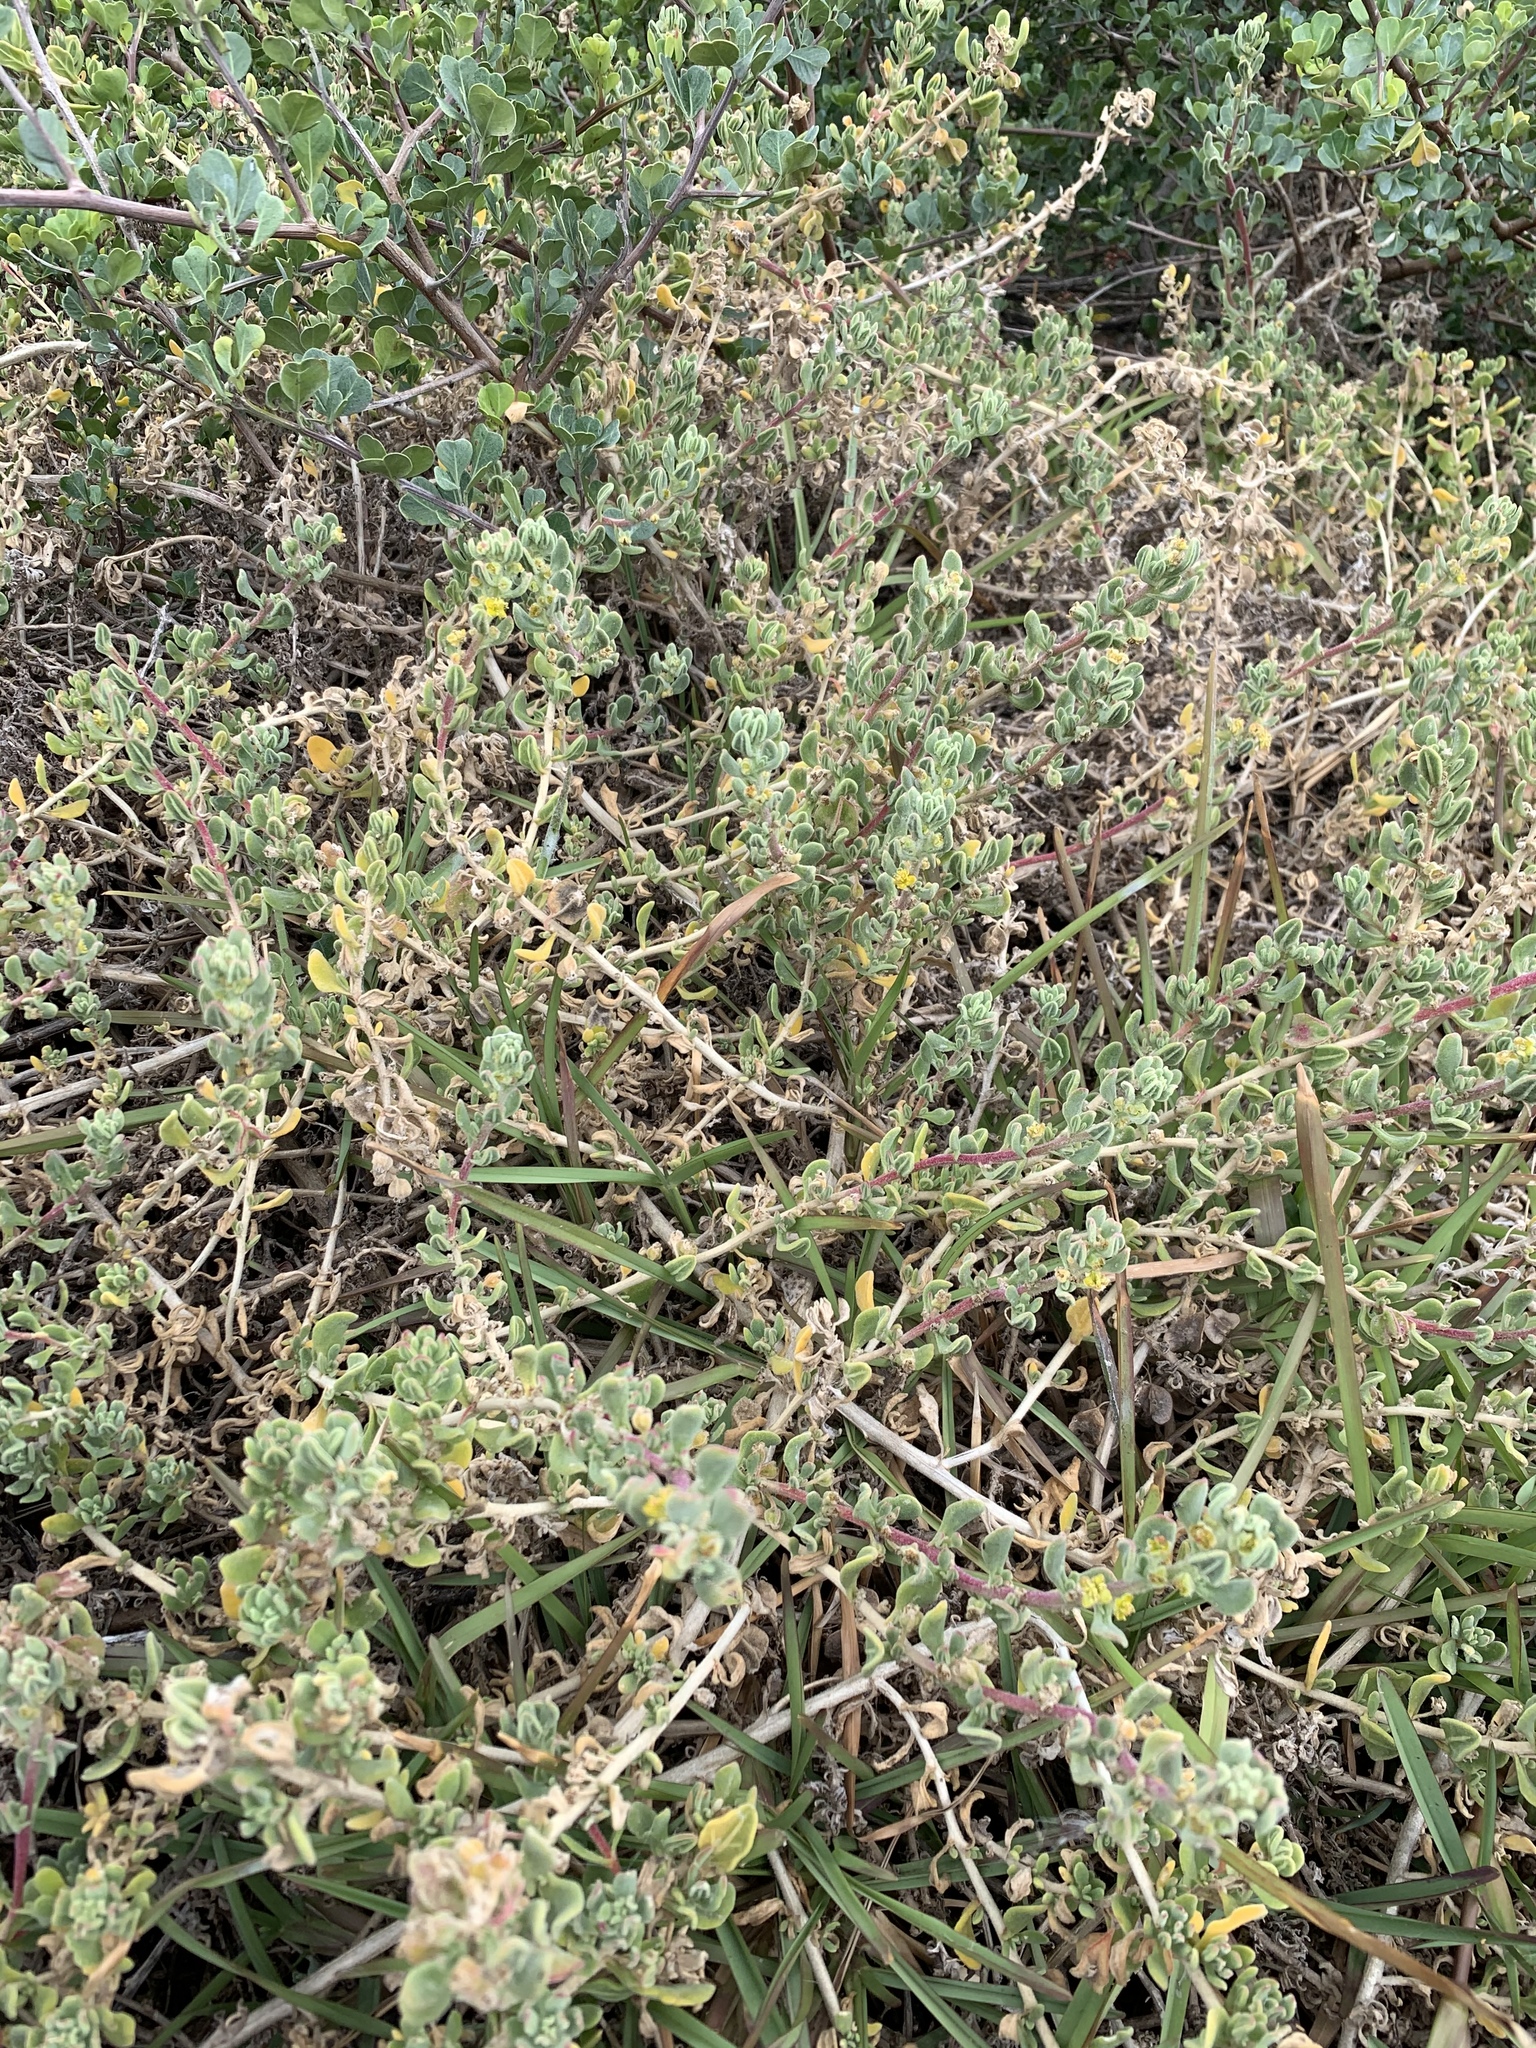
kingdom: Plantae
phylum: Tracheophyta
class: Magnoliopsida
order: Caryophyllales
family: Aizoaceae
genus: Tetragonia
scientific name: Tetragonia decumbens
